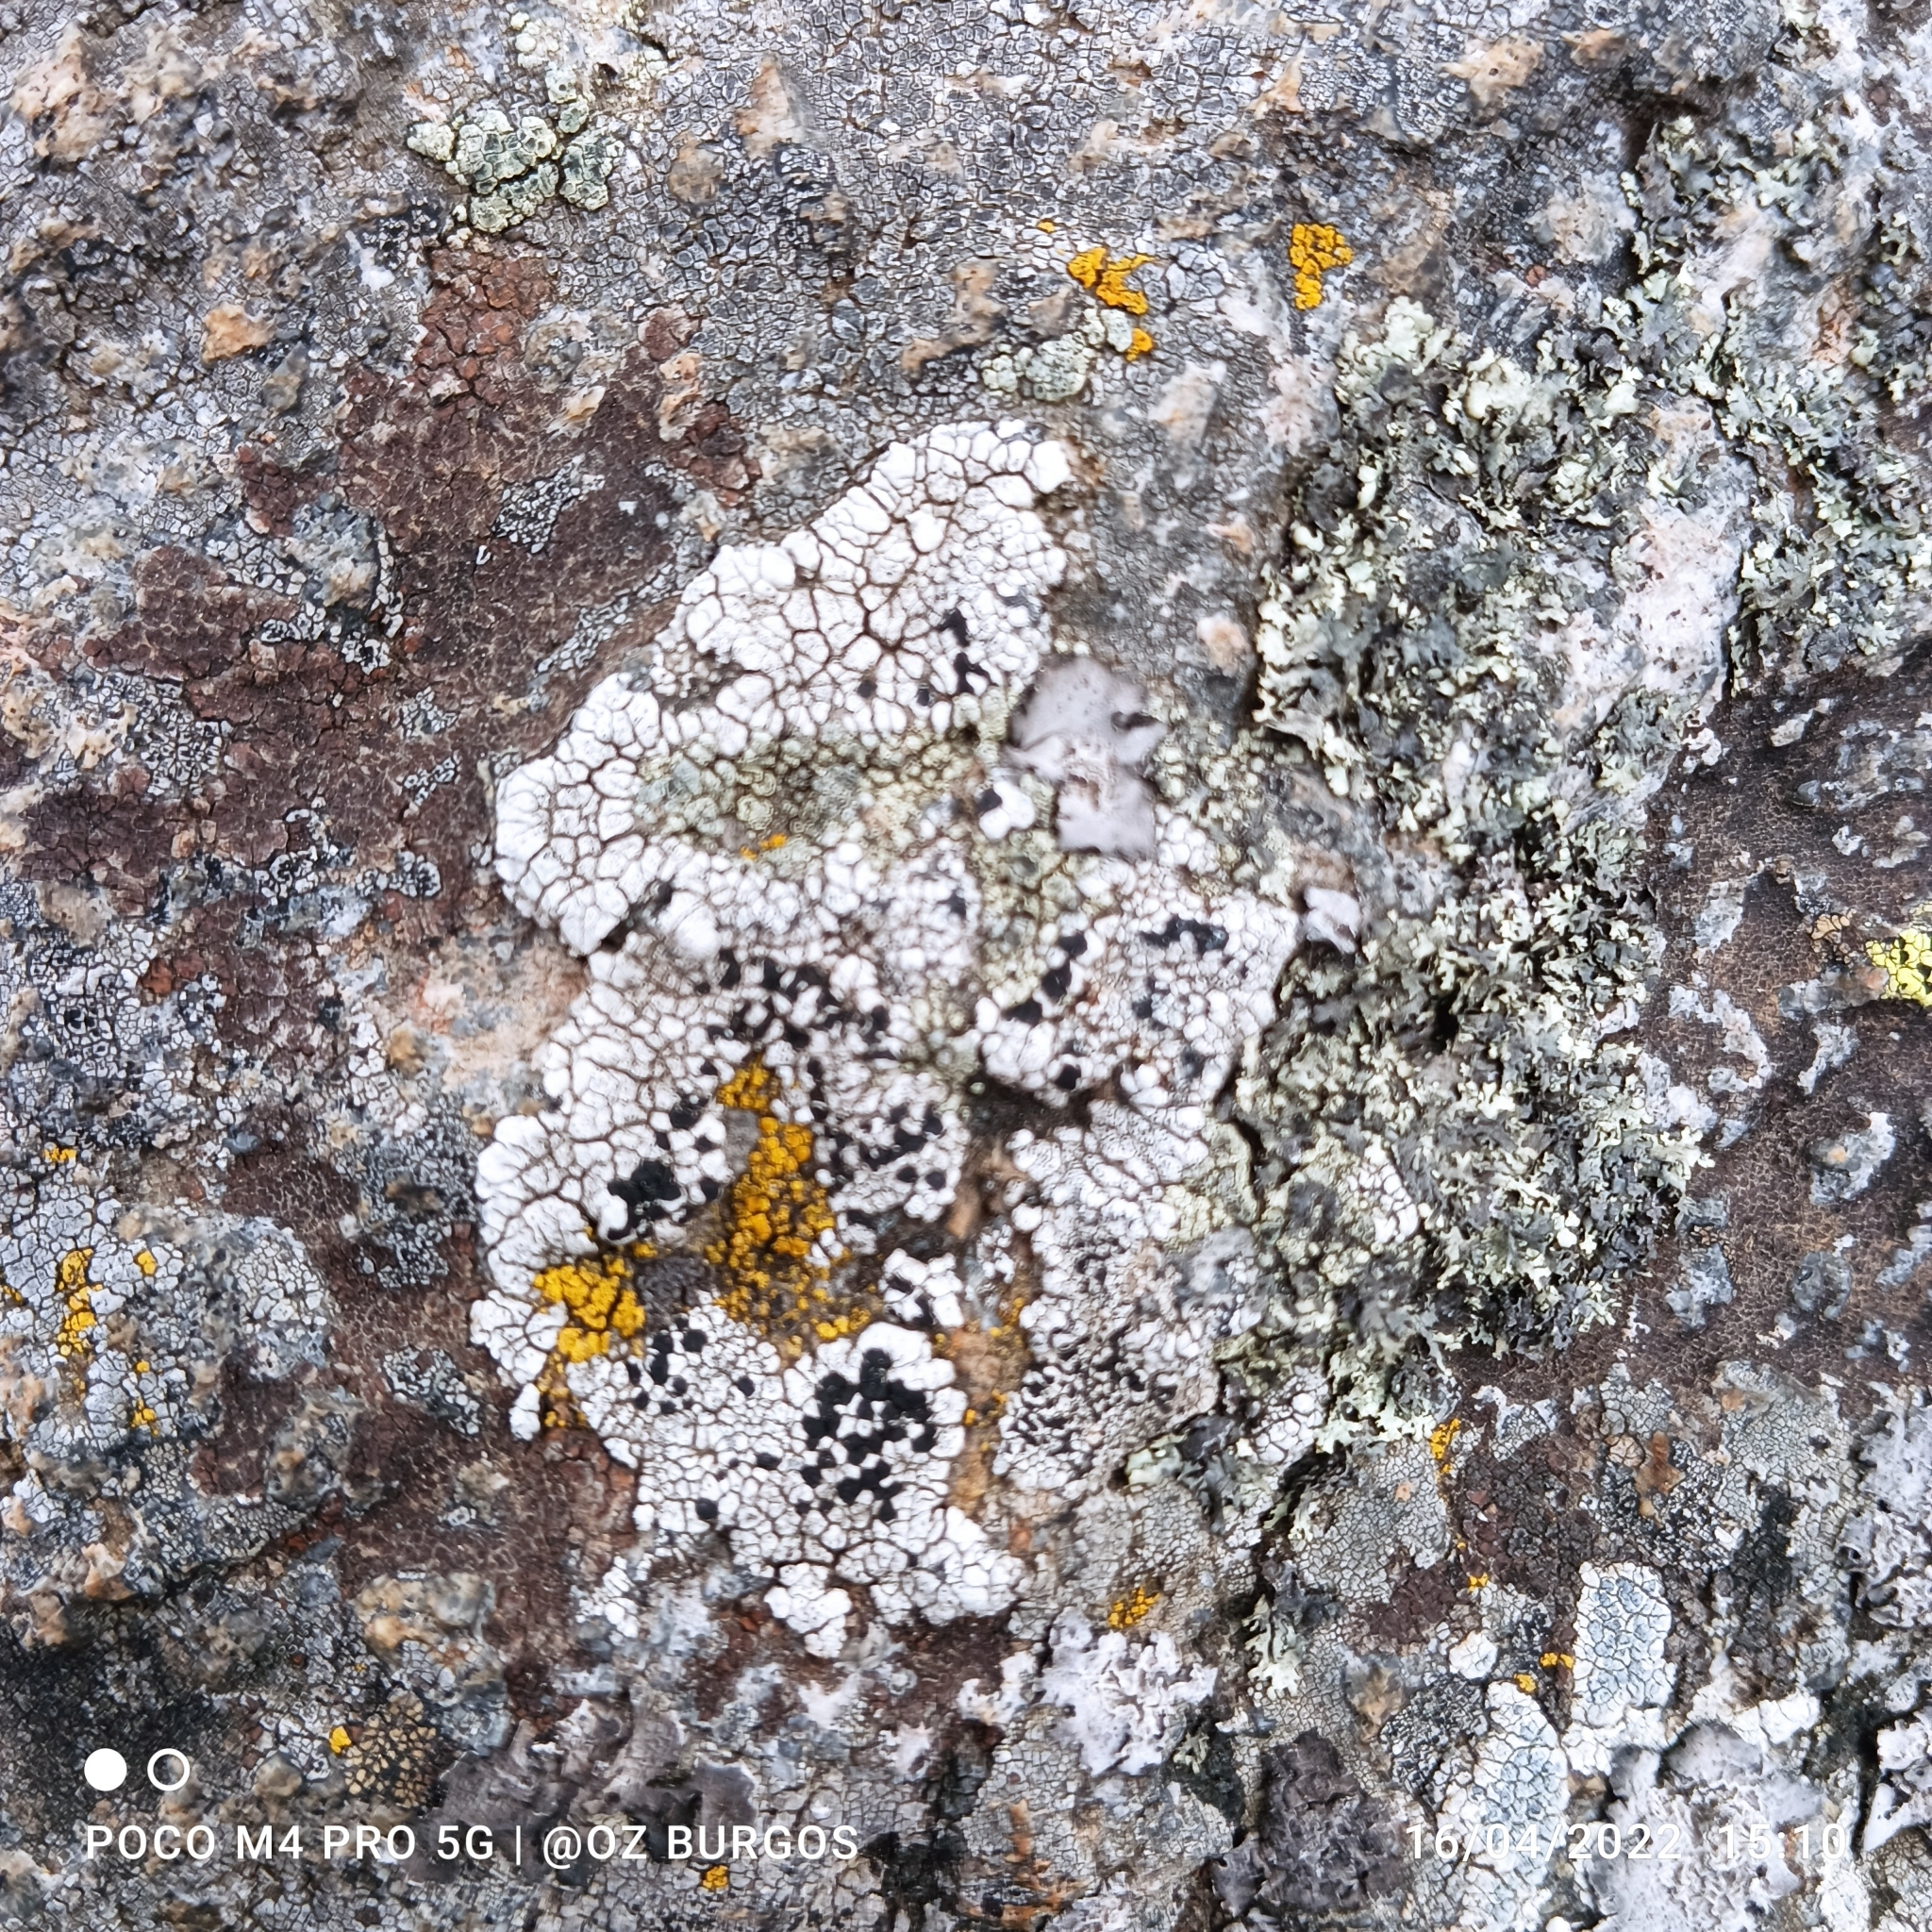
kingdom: Fungi
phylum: Ascomycota
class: Lecanoromycetes
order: Lecanorales
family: Tephromelataceae
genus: Tephromela
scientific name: Tephromela atra
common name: Black shields
